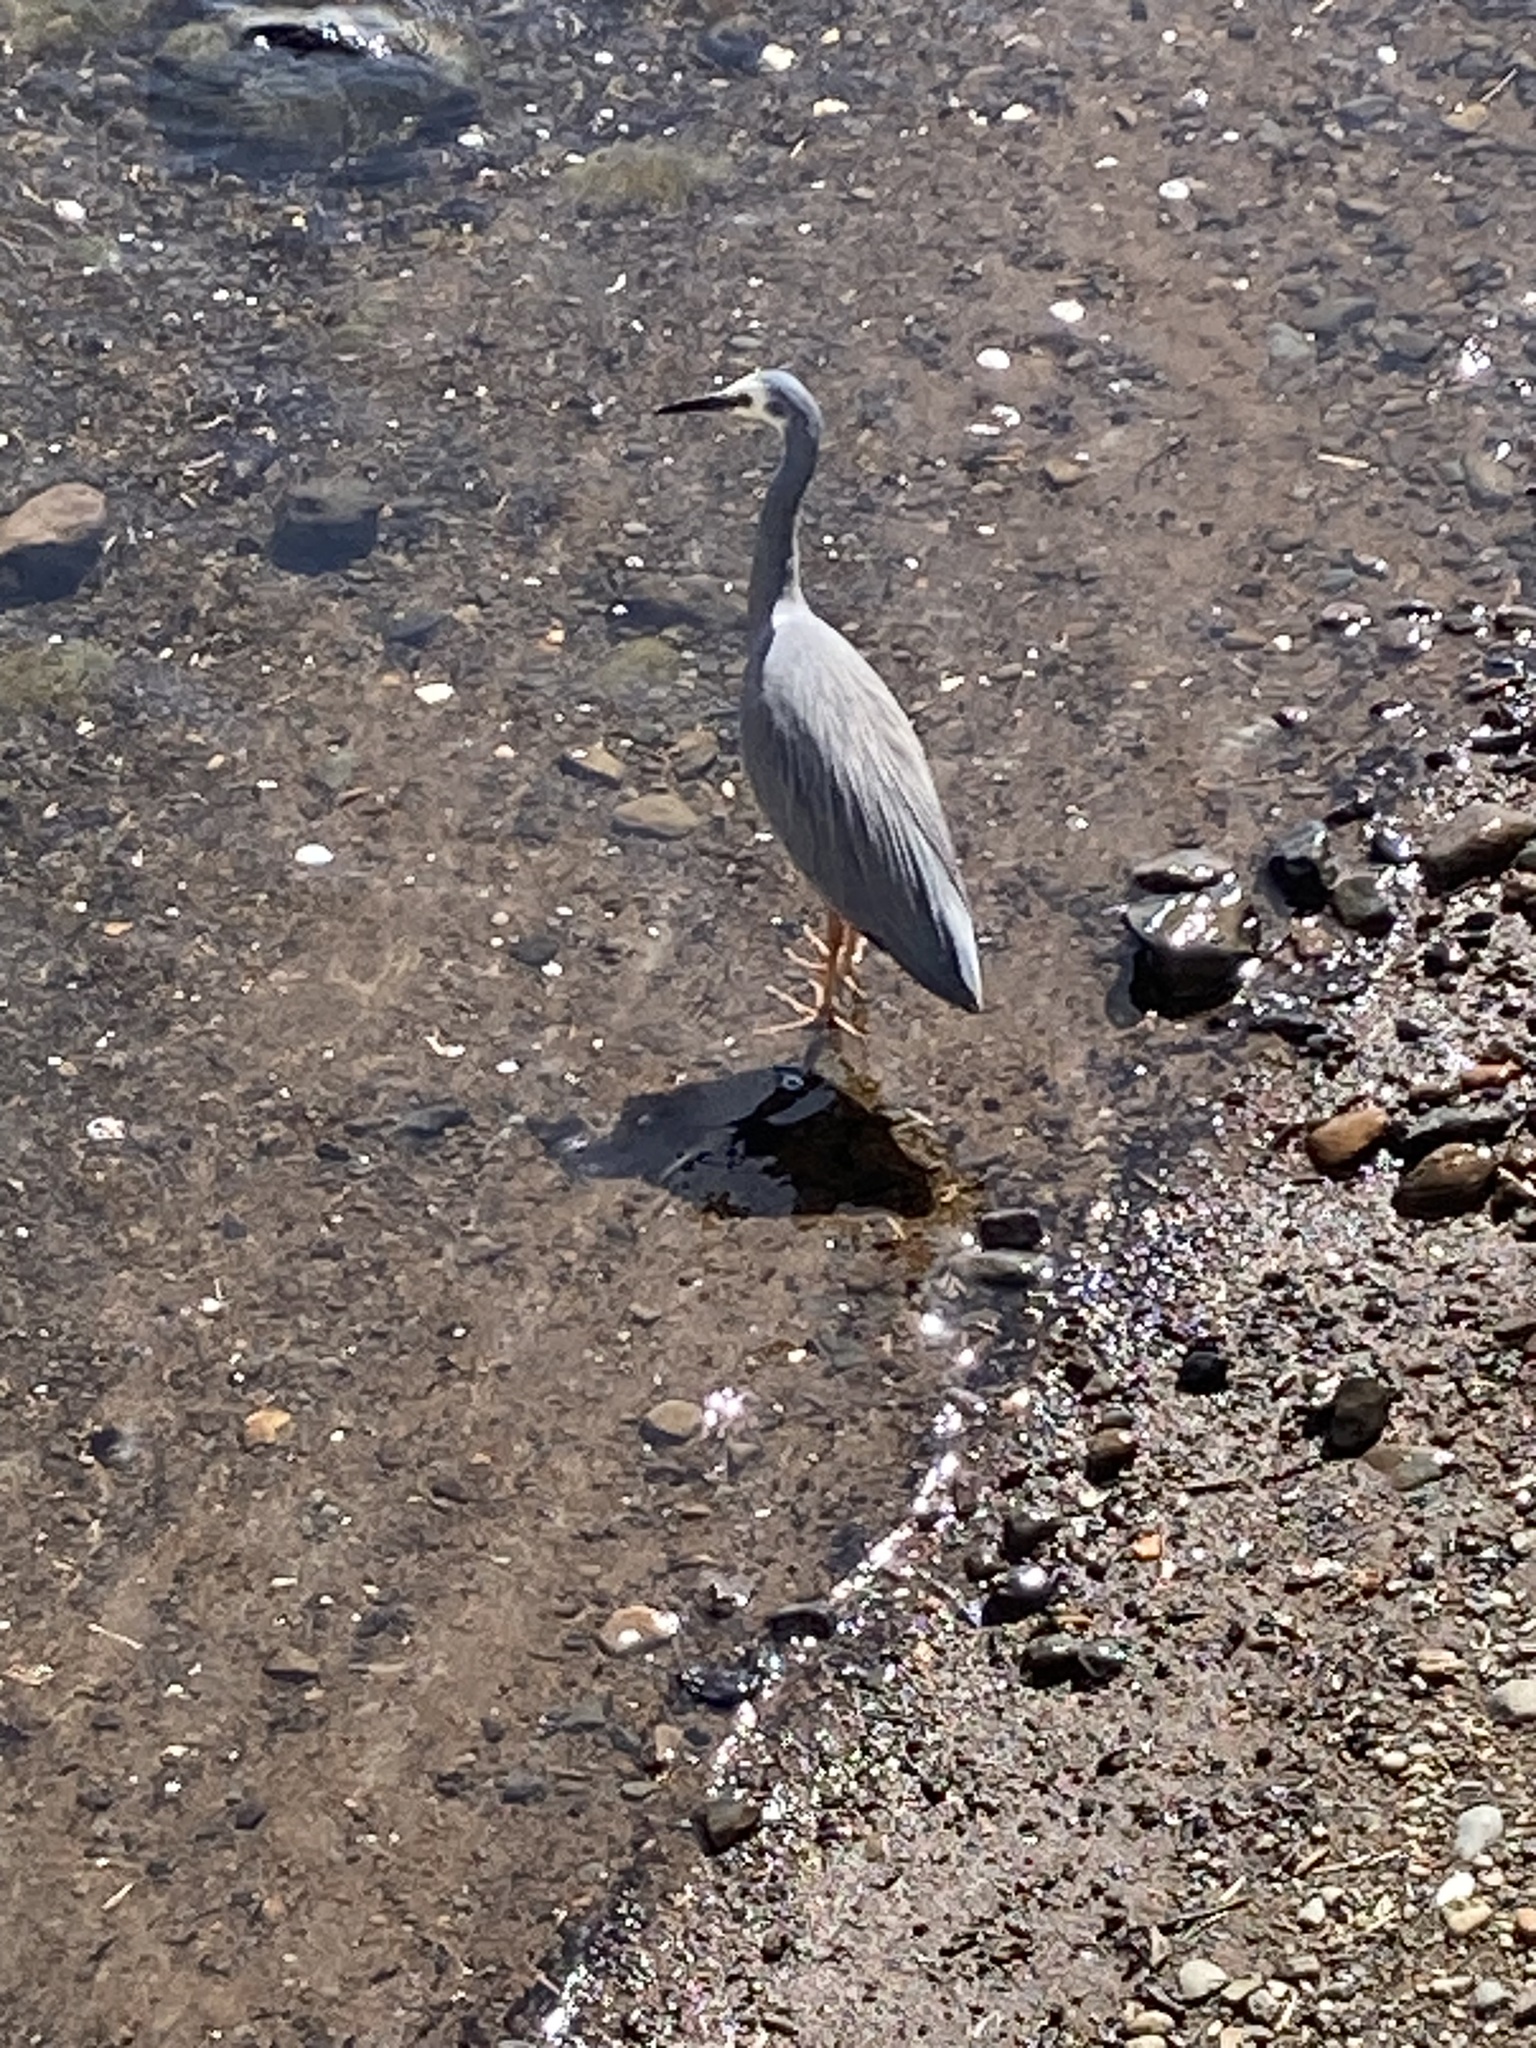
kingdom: Animalia
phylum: Chordata
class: Aves
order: Pelecaniformes
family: Ardeidae
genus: Egretta
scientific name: Egretta novaehollandiae
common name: White-faced heron
